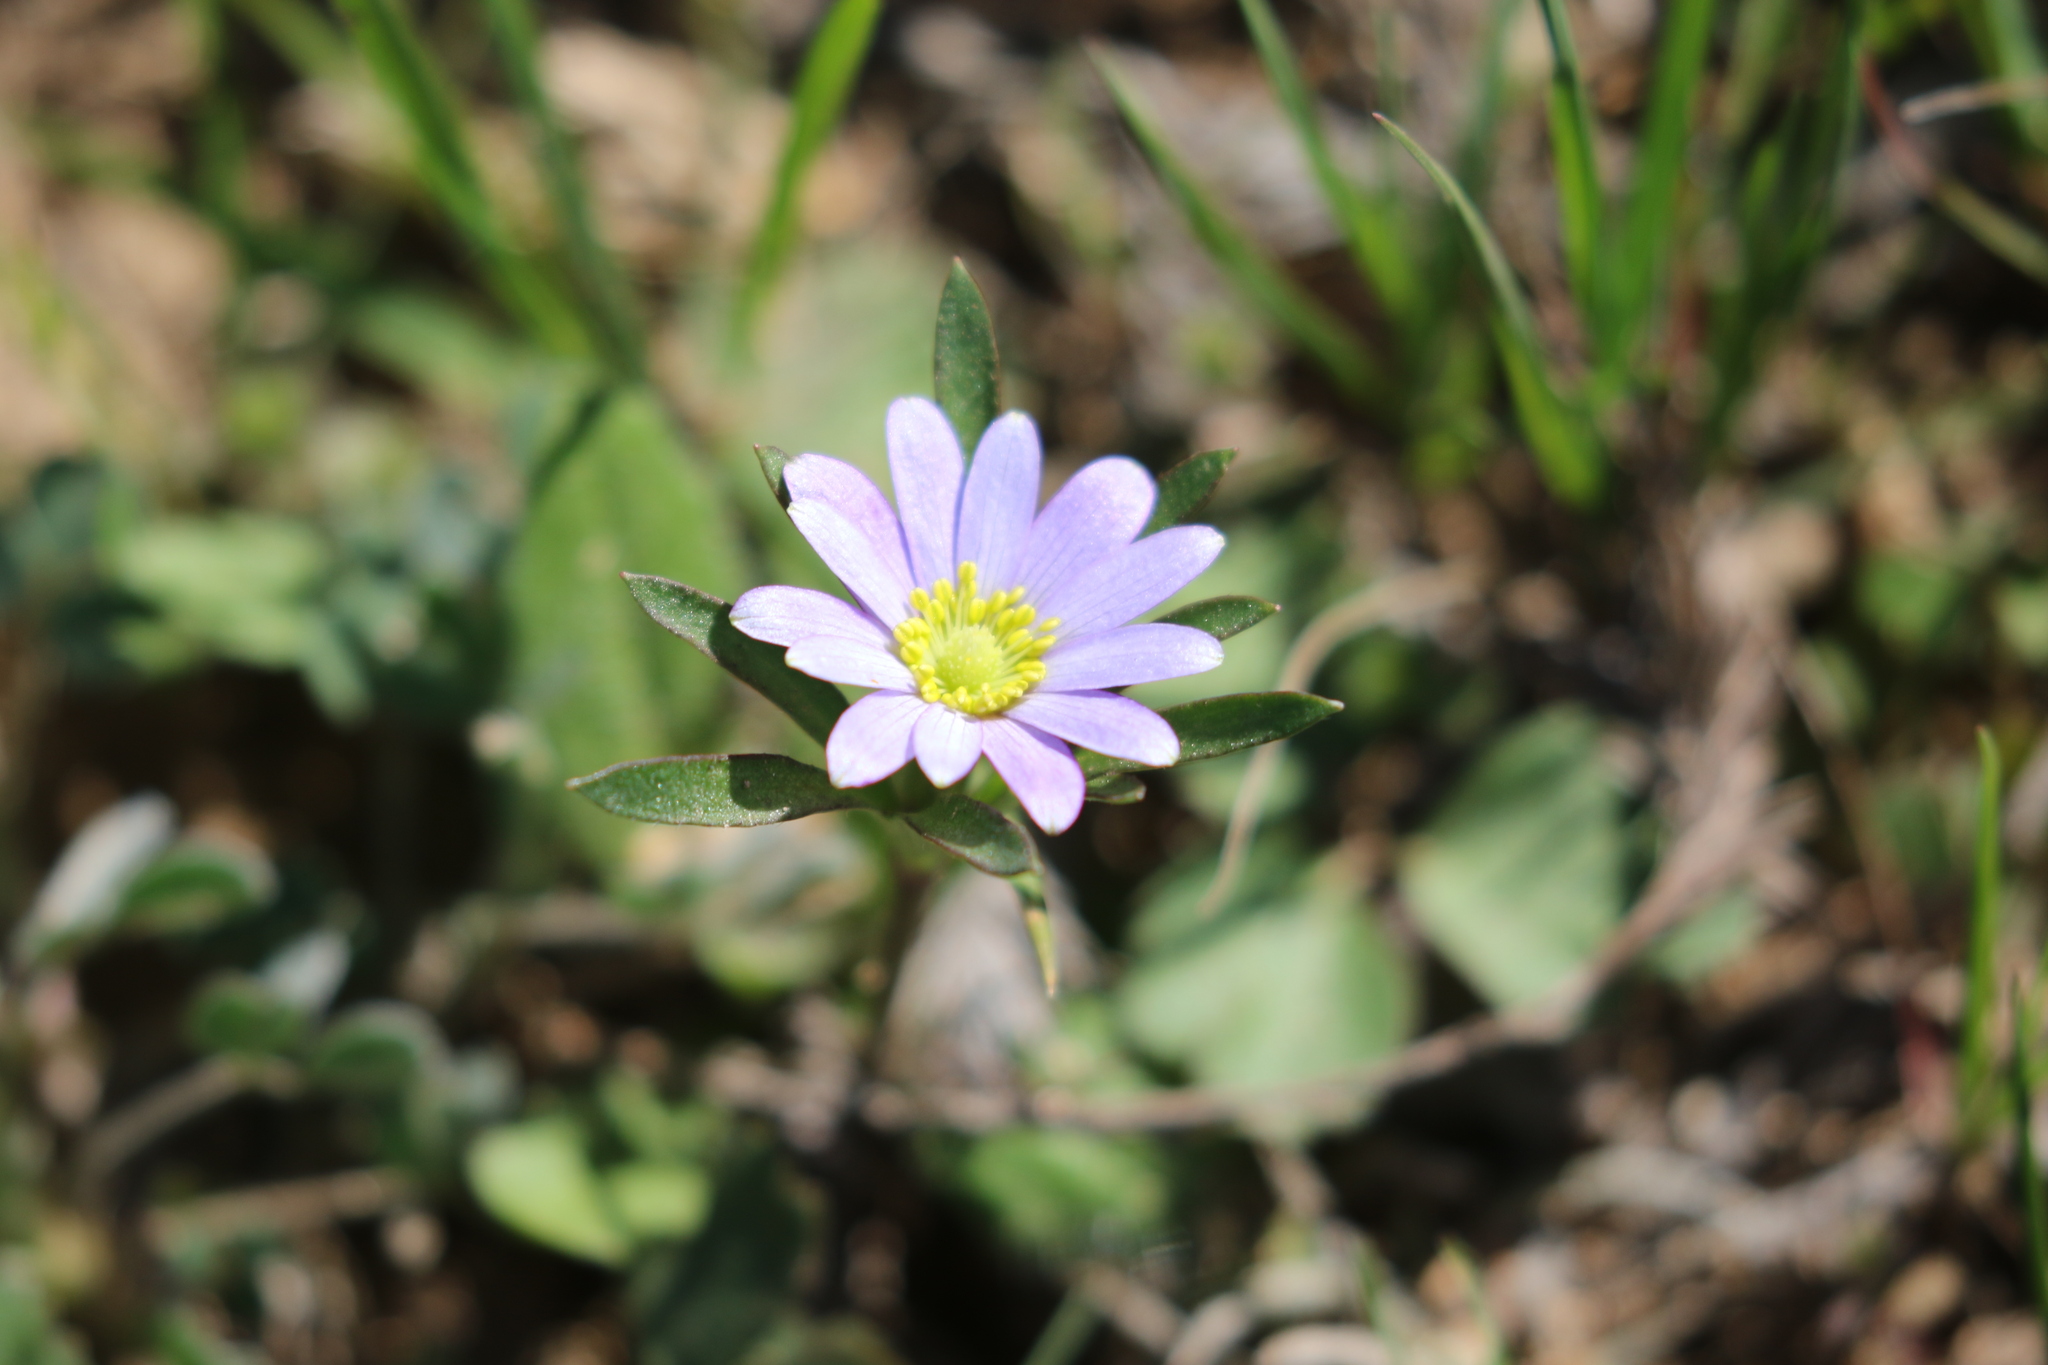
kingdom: Plantae
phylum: Tracheophyta
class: Magnoliopsida
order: Ranunculales
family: Ranunculaceae
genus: Anemone
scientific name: Anemone berlandieri
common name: Ten-petal anemone
